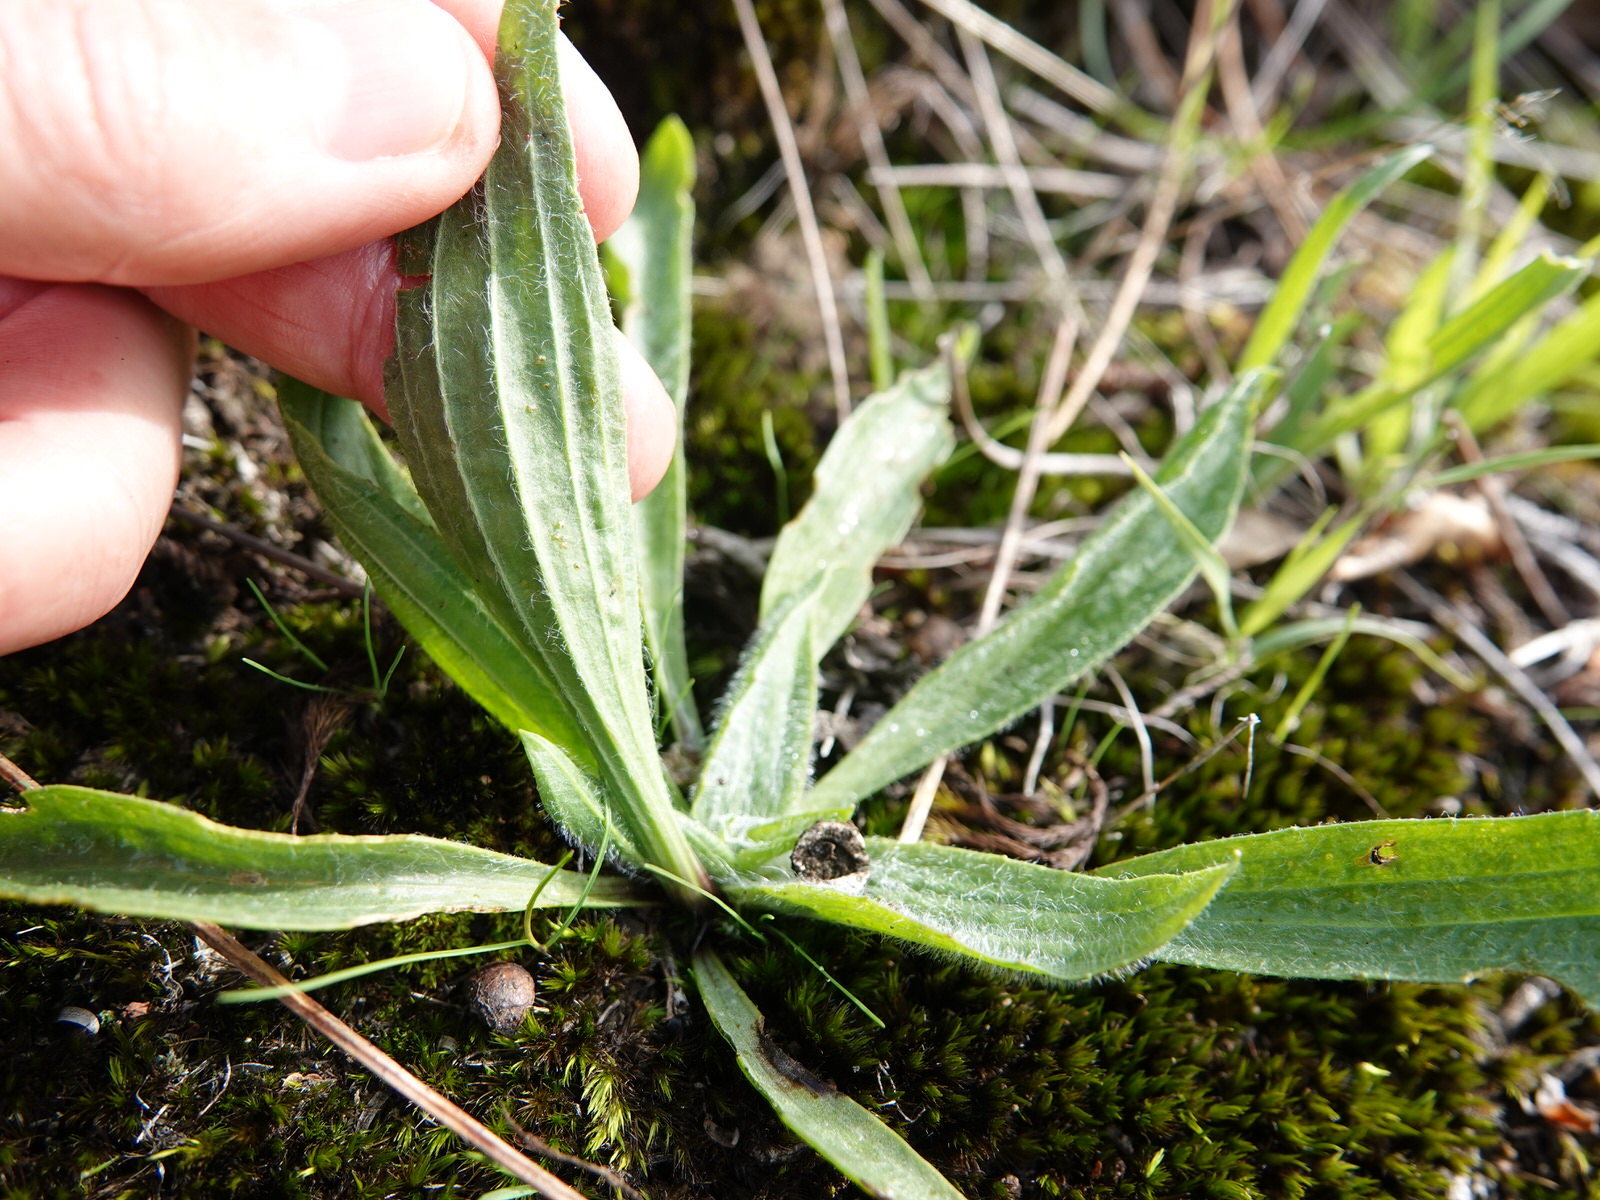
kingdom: Plantae
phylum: Tracheophyta
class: Magnoliopsida
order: Lamiales
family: Plantaginaceae
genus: Plantago
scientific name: Plantago lanceolata
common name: Ribwort plantain
